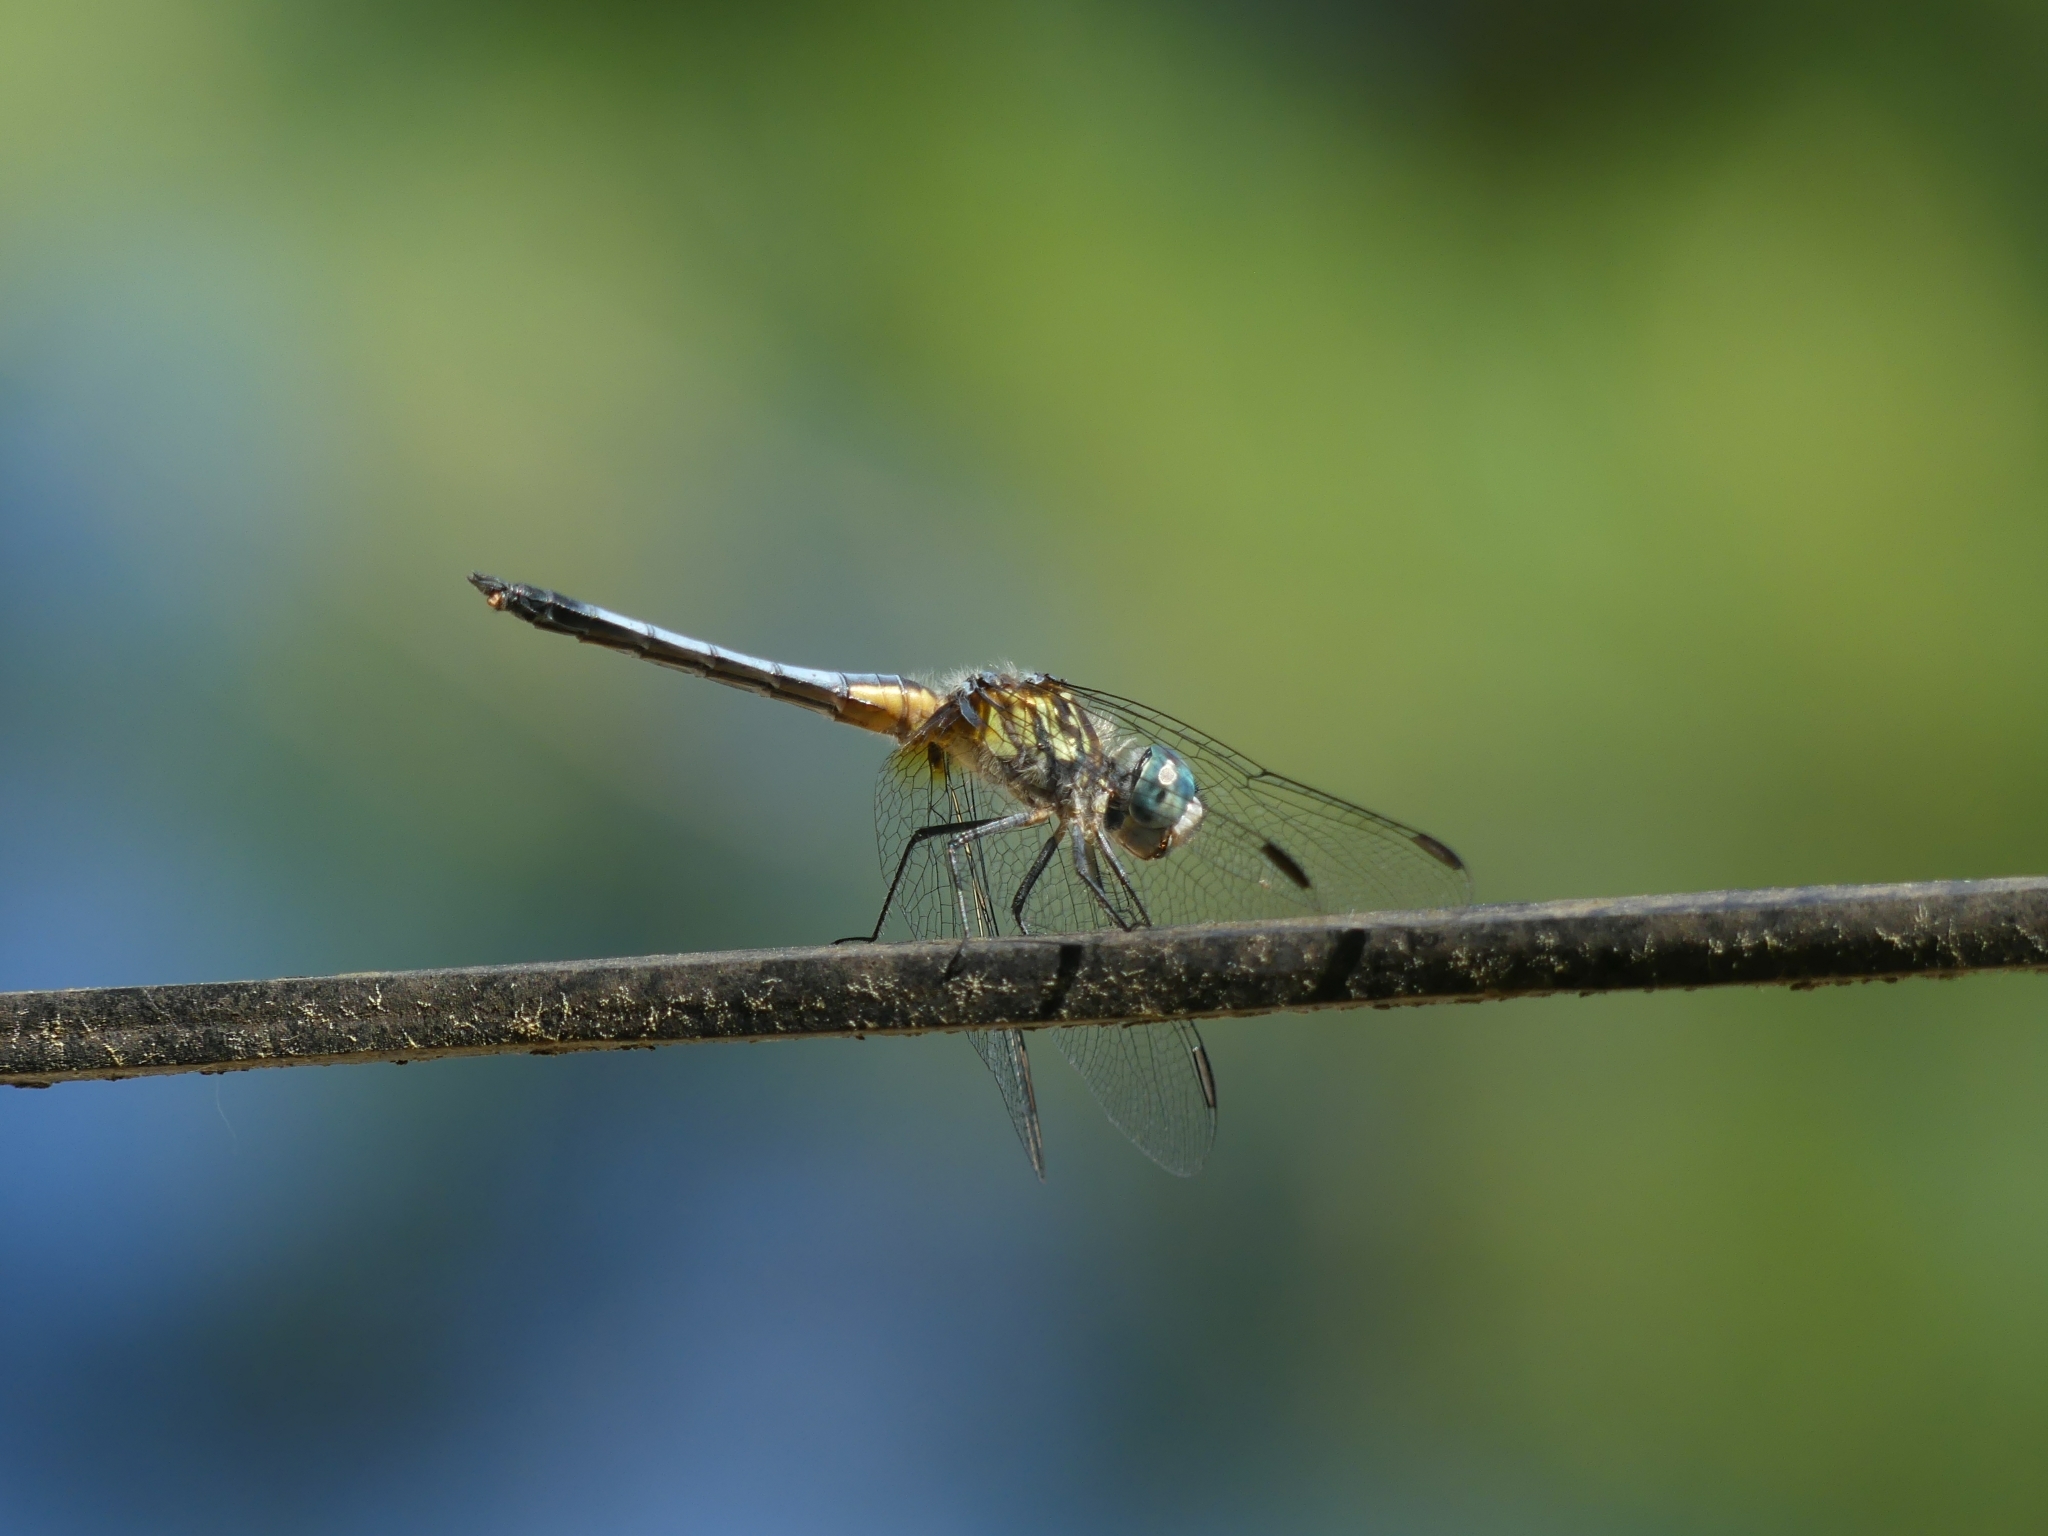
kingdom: Animalia
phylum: Arthropoda
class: Insecta
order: Odonata
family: Libellulidae
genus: Pachydiplax
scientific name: Pachydiplax longipennis
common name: Blue dasher
